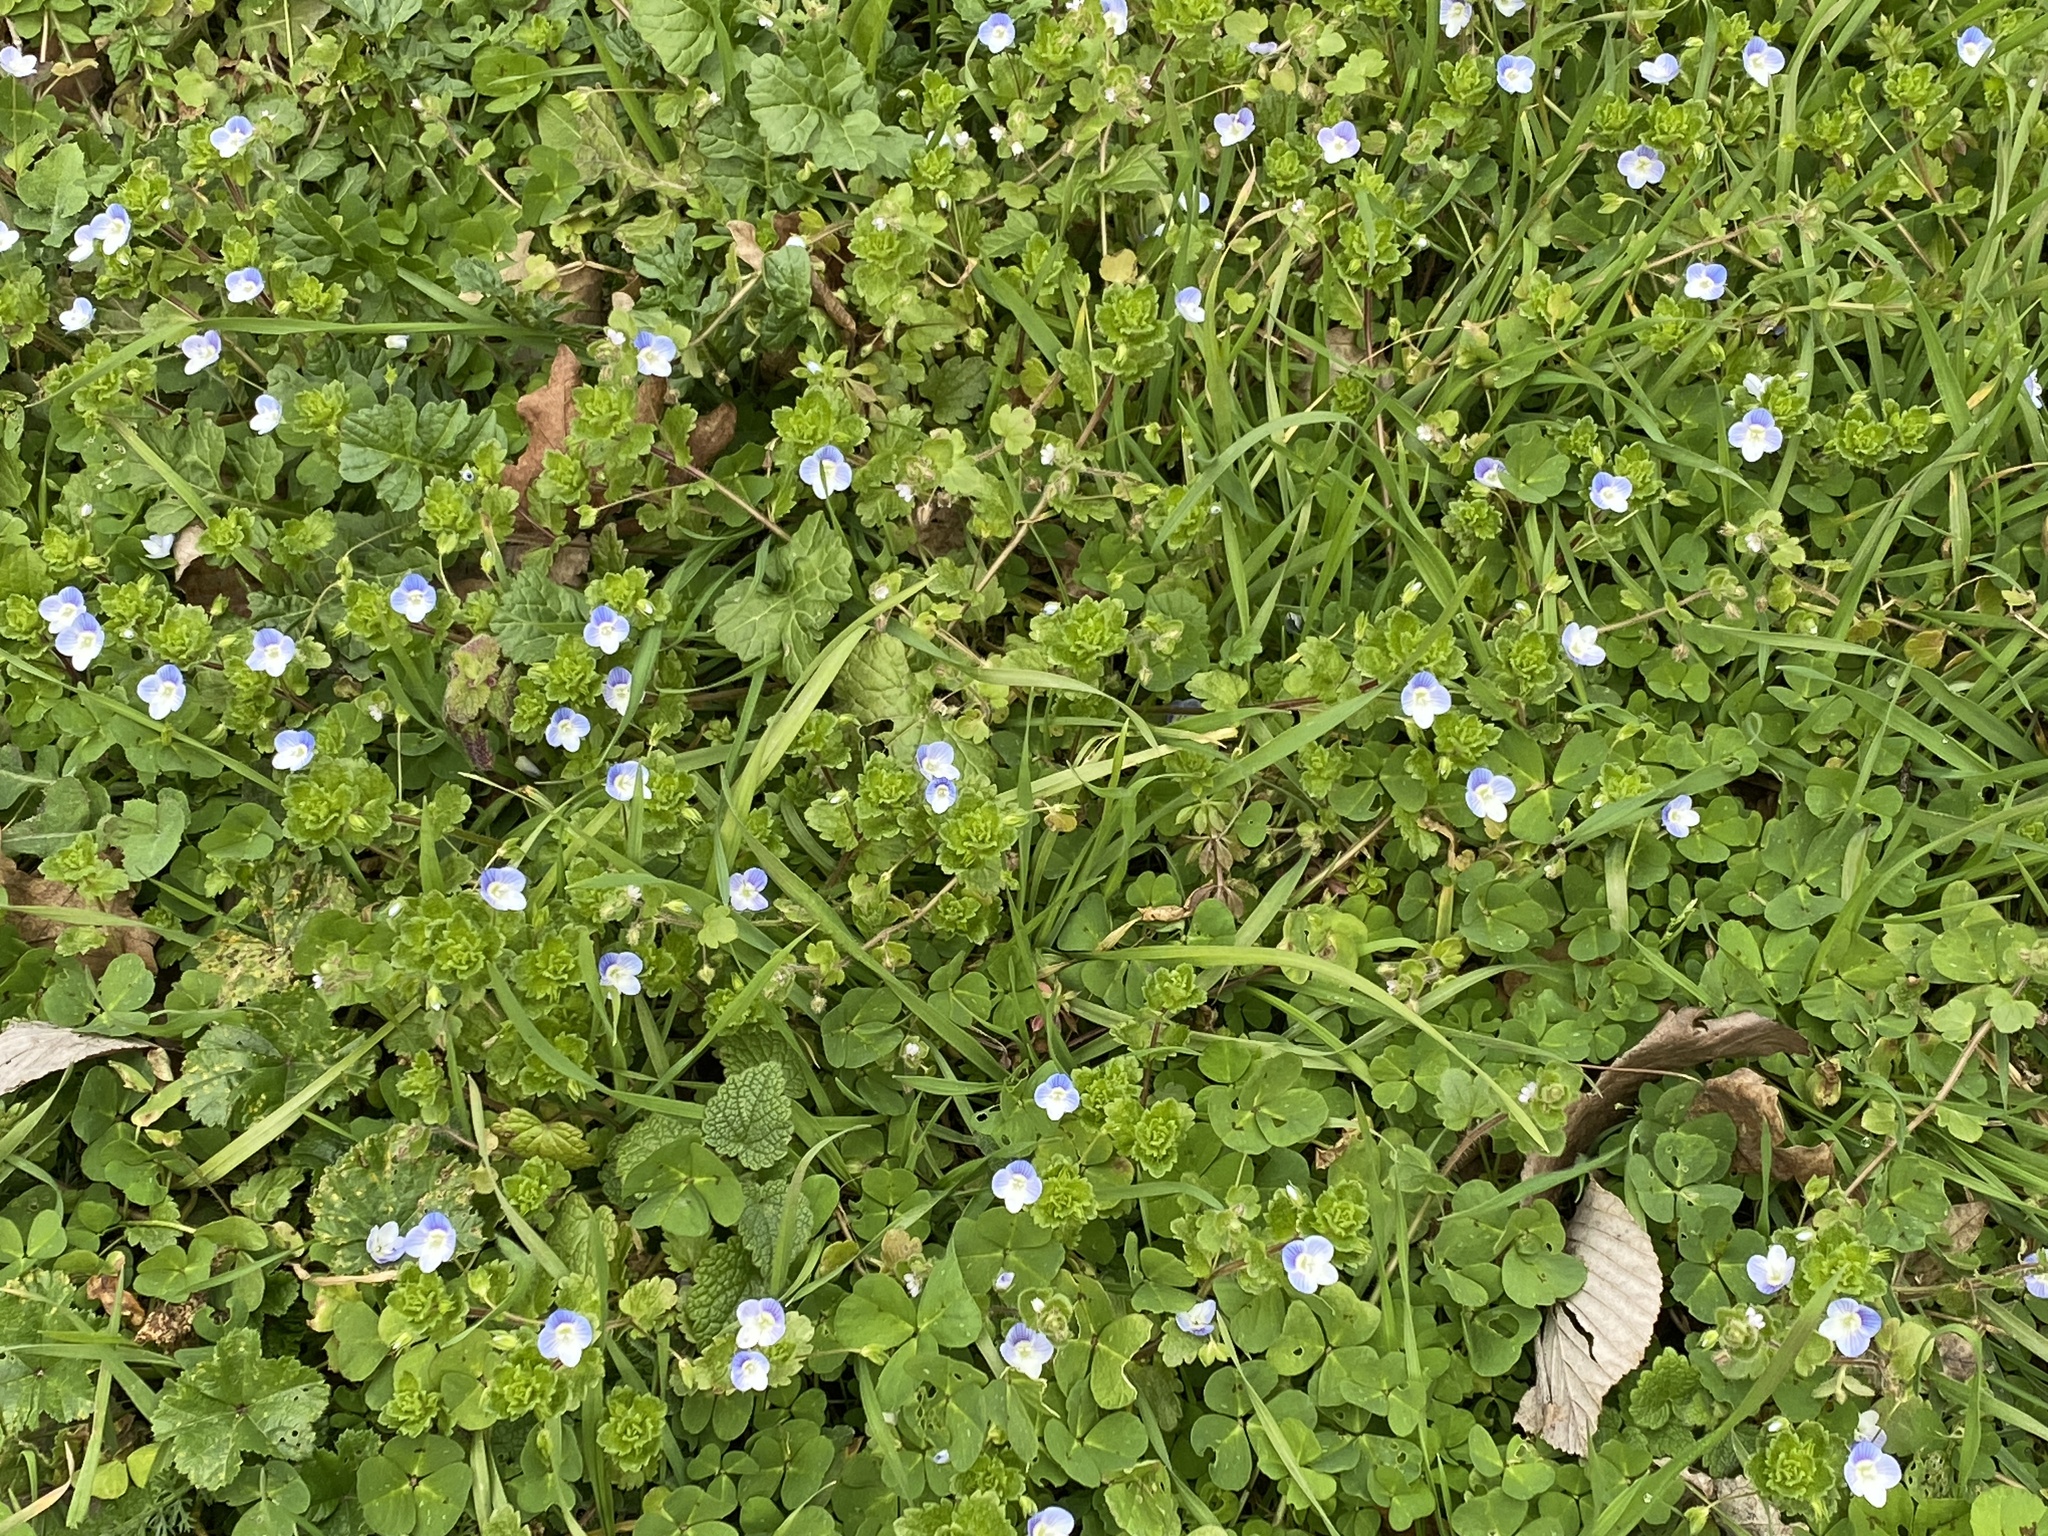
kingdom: Plantae
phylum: Tracheophyta
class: Magnoliopsida
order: Lamiales
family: Plantaginaceae
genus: Veronica
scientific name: Veronica persica
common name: Common field-speedwell
